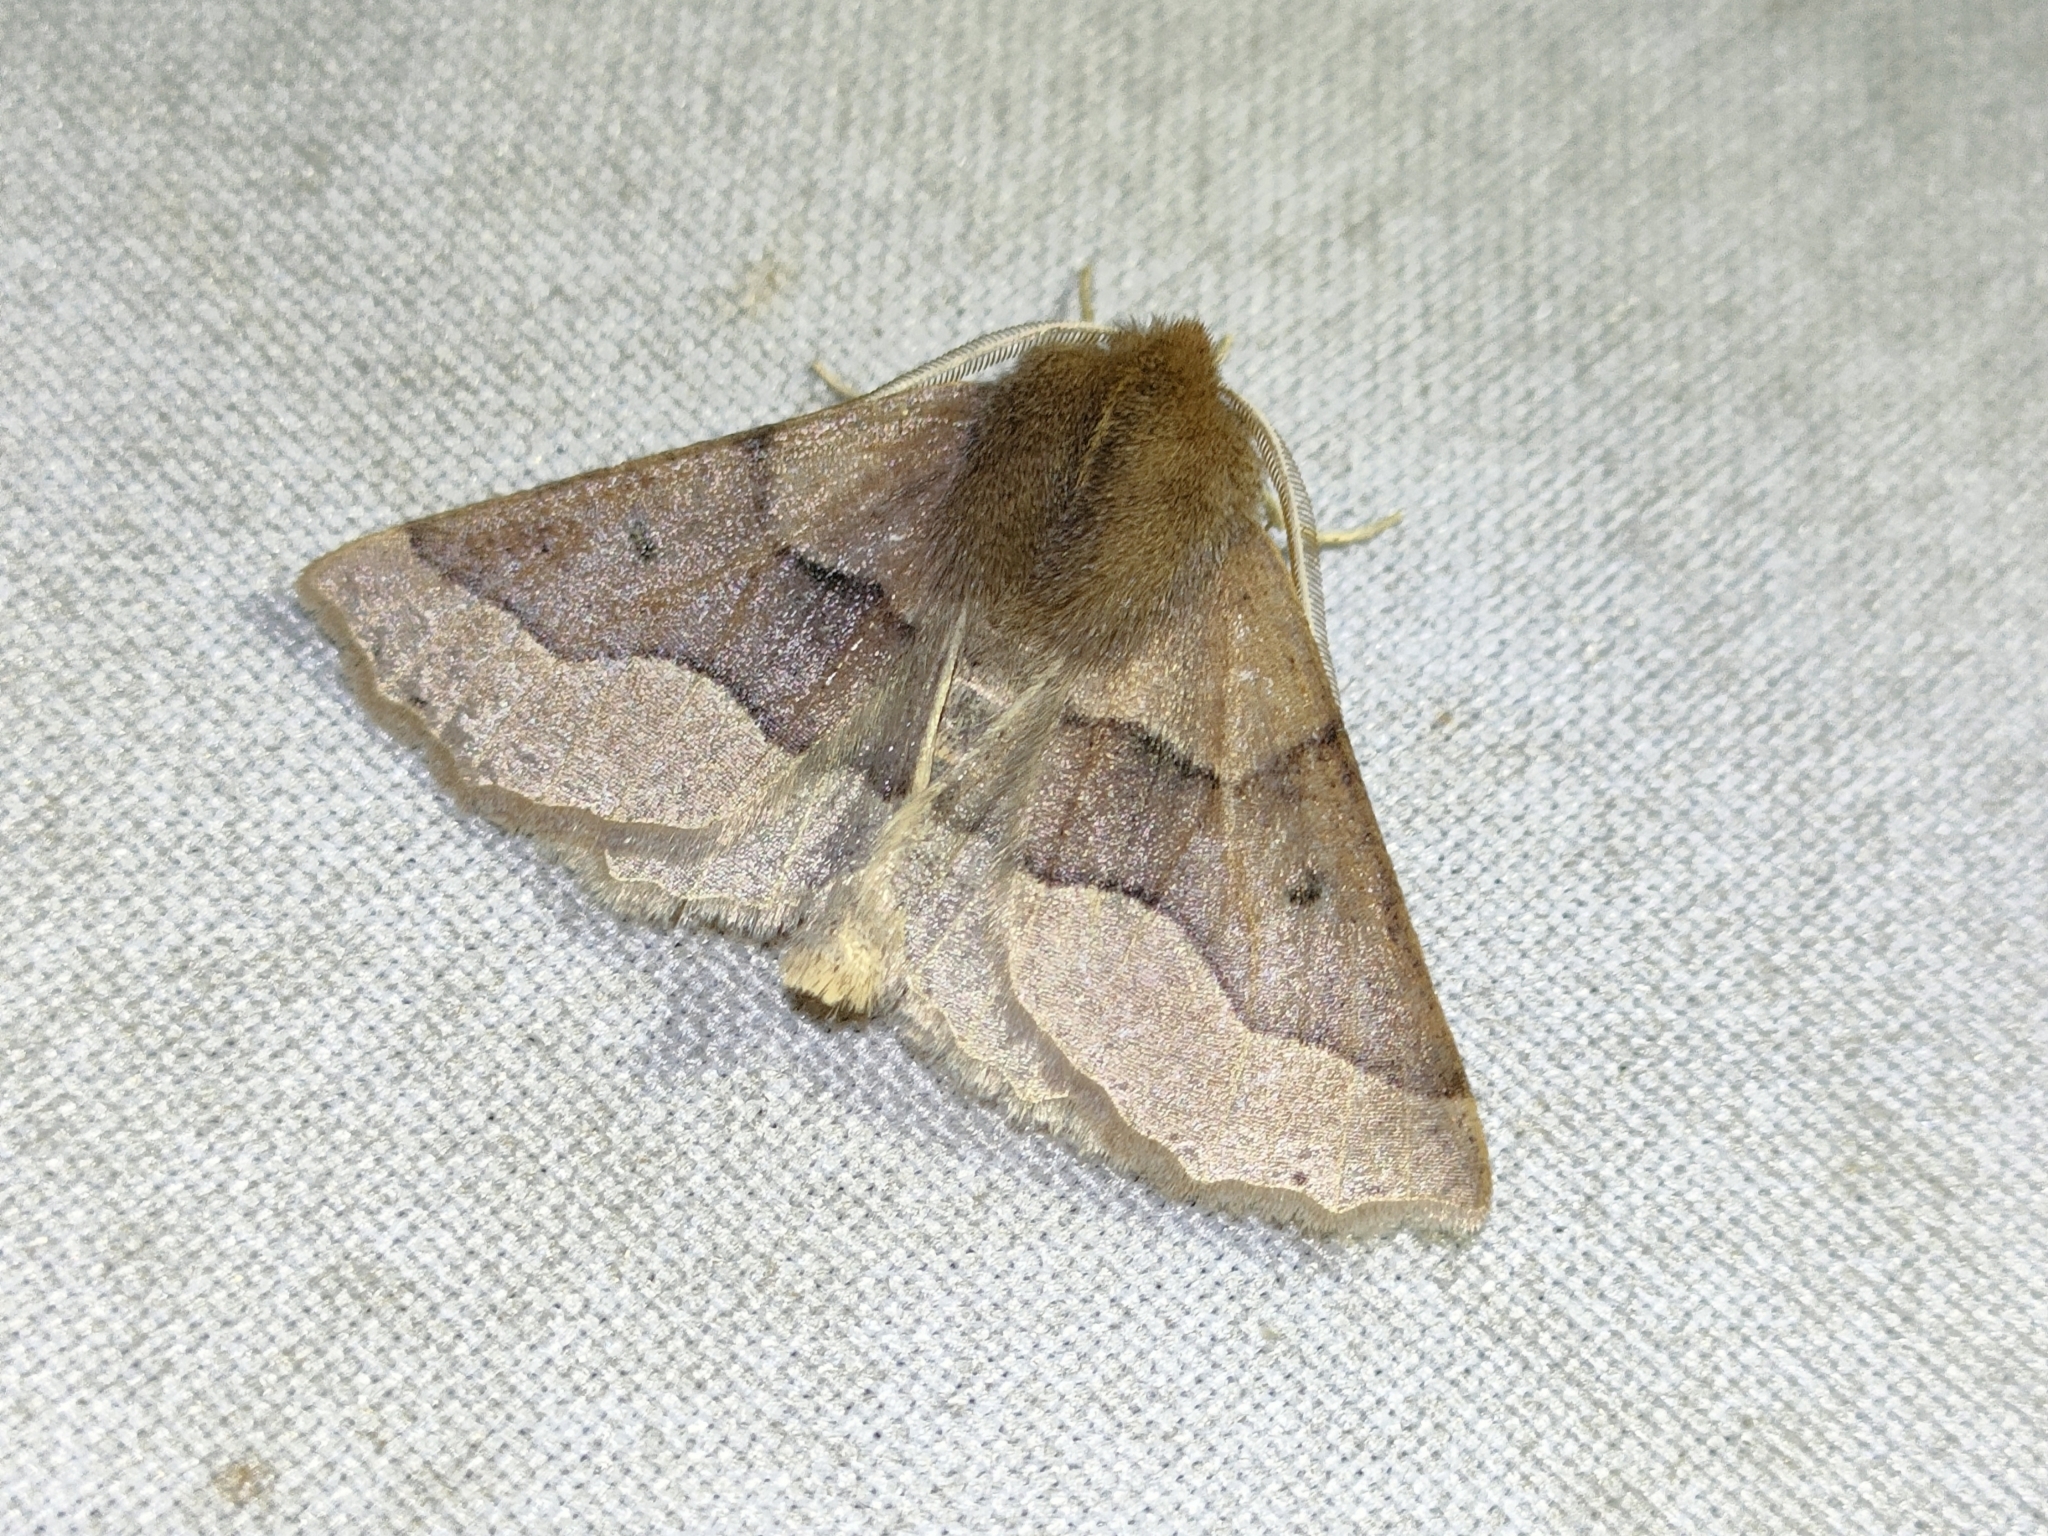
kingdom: Animalia
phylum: Arthropoda
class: Insecta
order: Lepidoptera
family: Geometridae
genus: Crocallis
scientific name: Crocallis tusciaria
